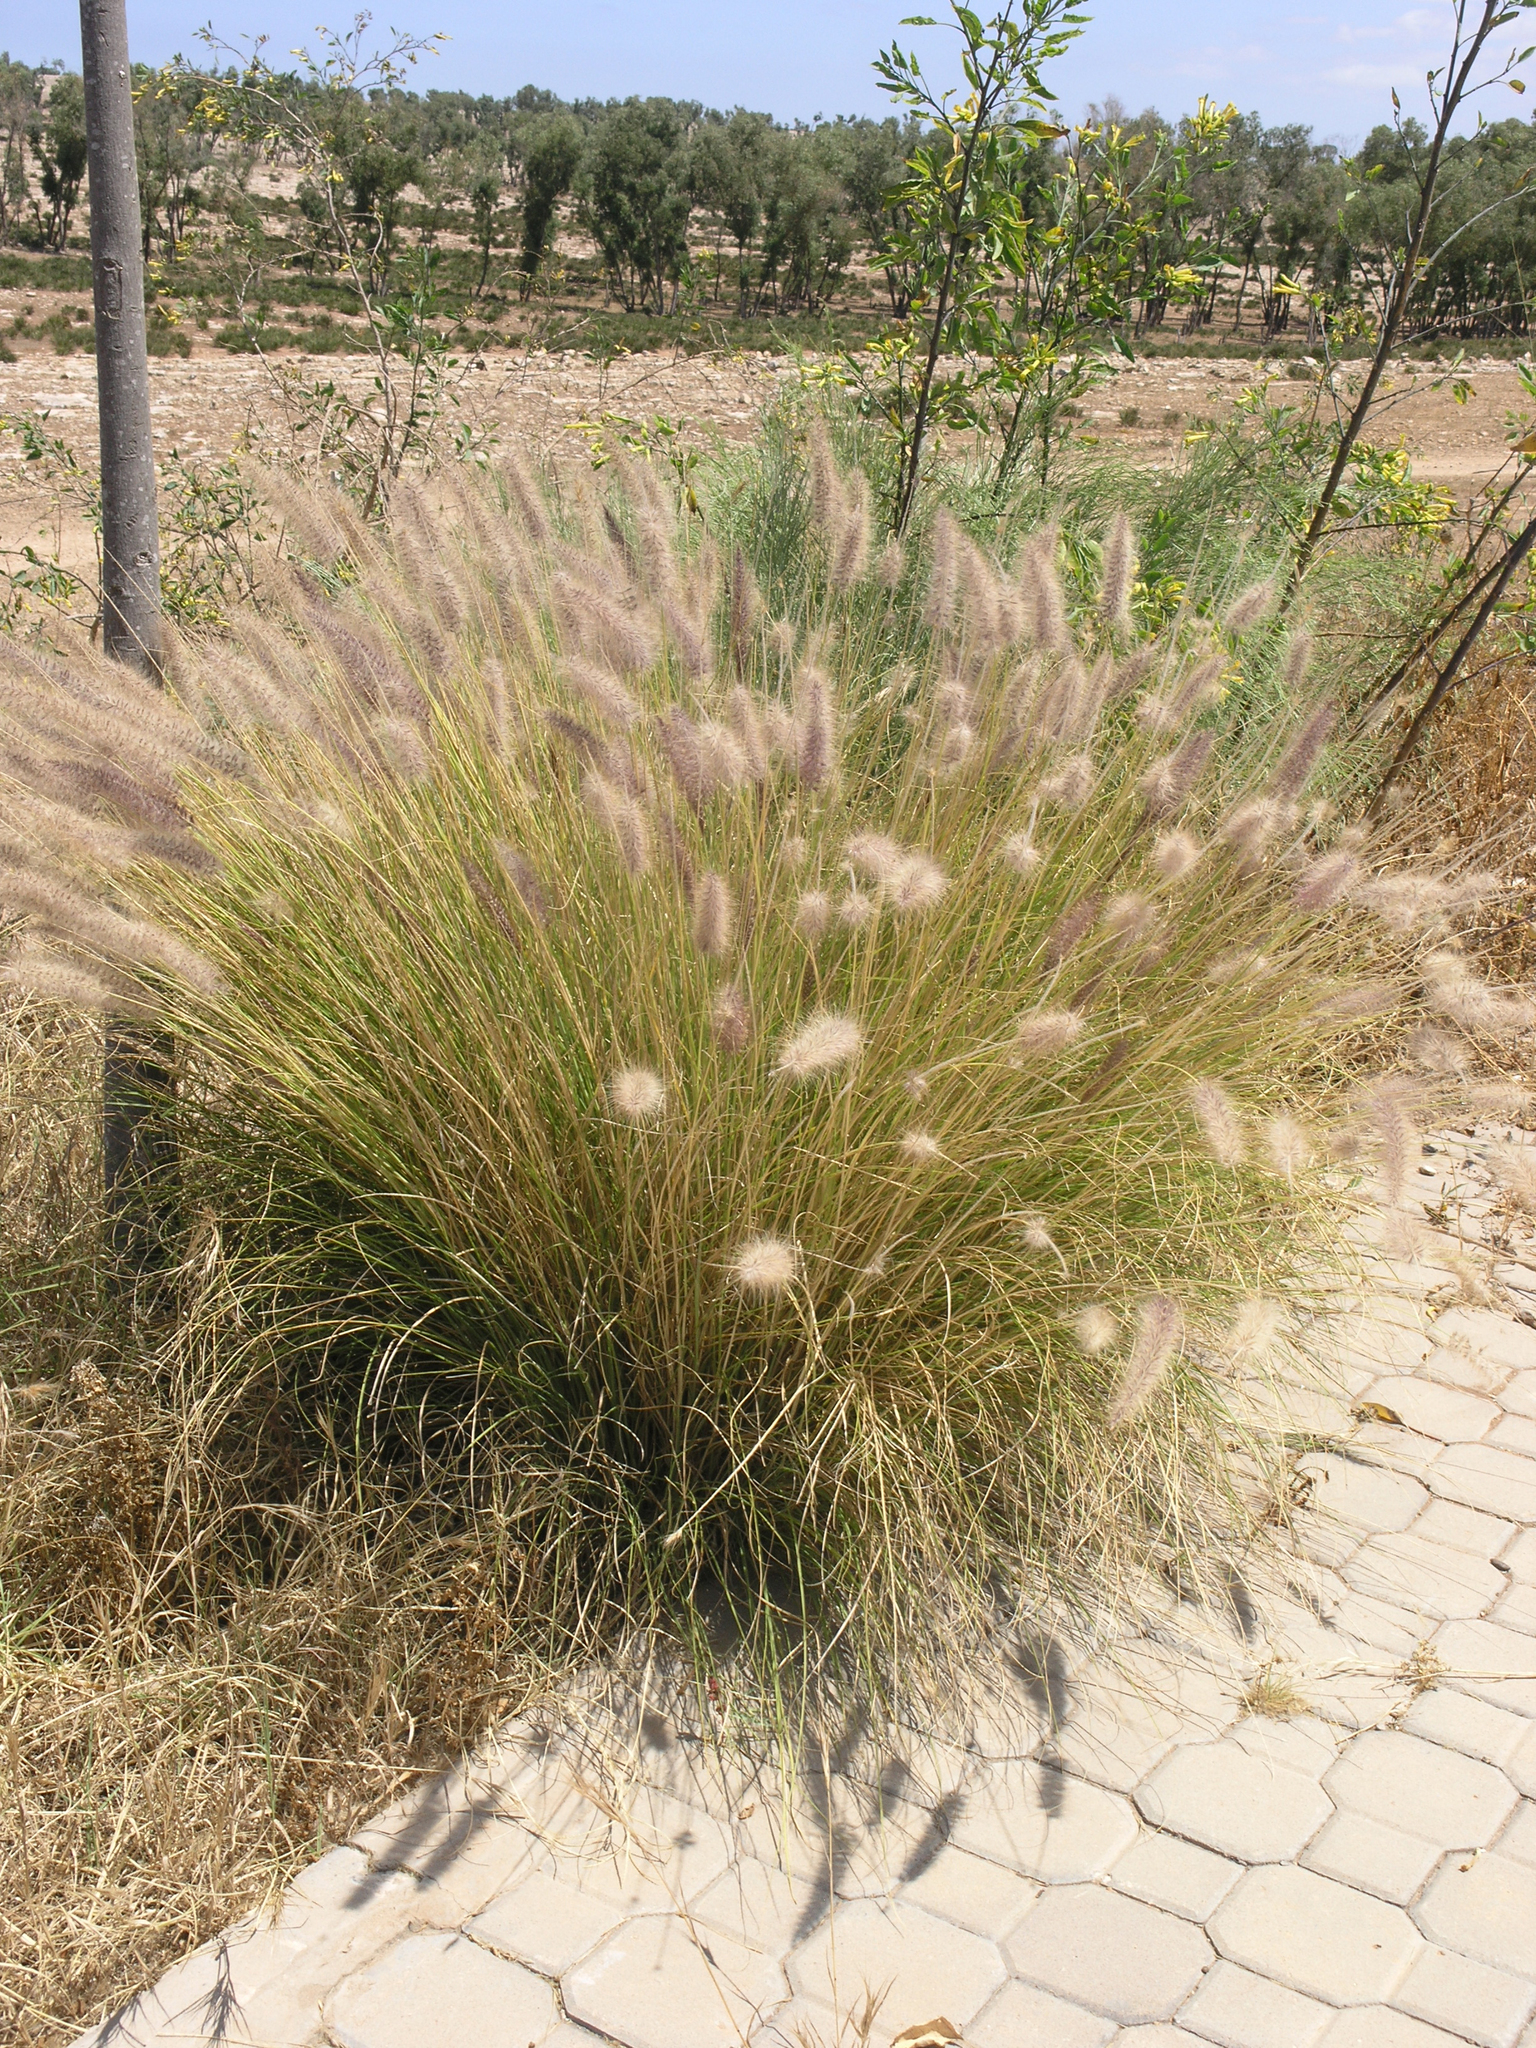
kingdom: Plantae
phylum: Tracheophyta
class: Liliopsida
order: Poales
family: Poaceae
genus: Cenchrus
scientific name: Cenchrus setaceus
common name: Crimson fountaingrass
